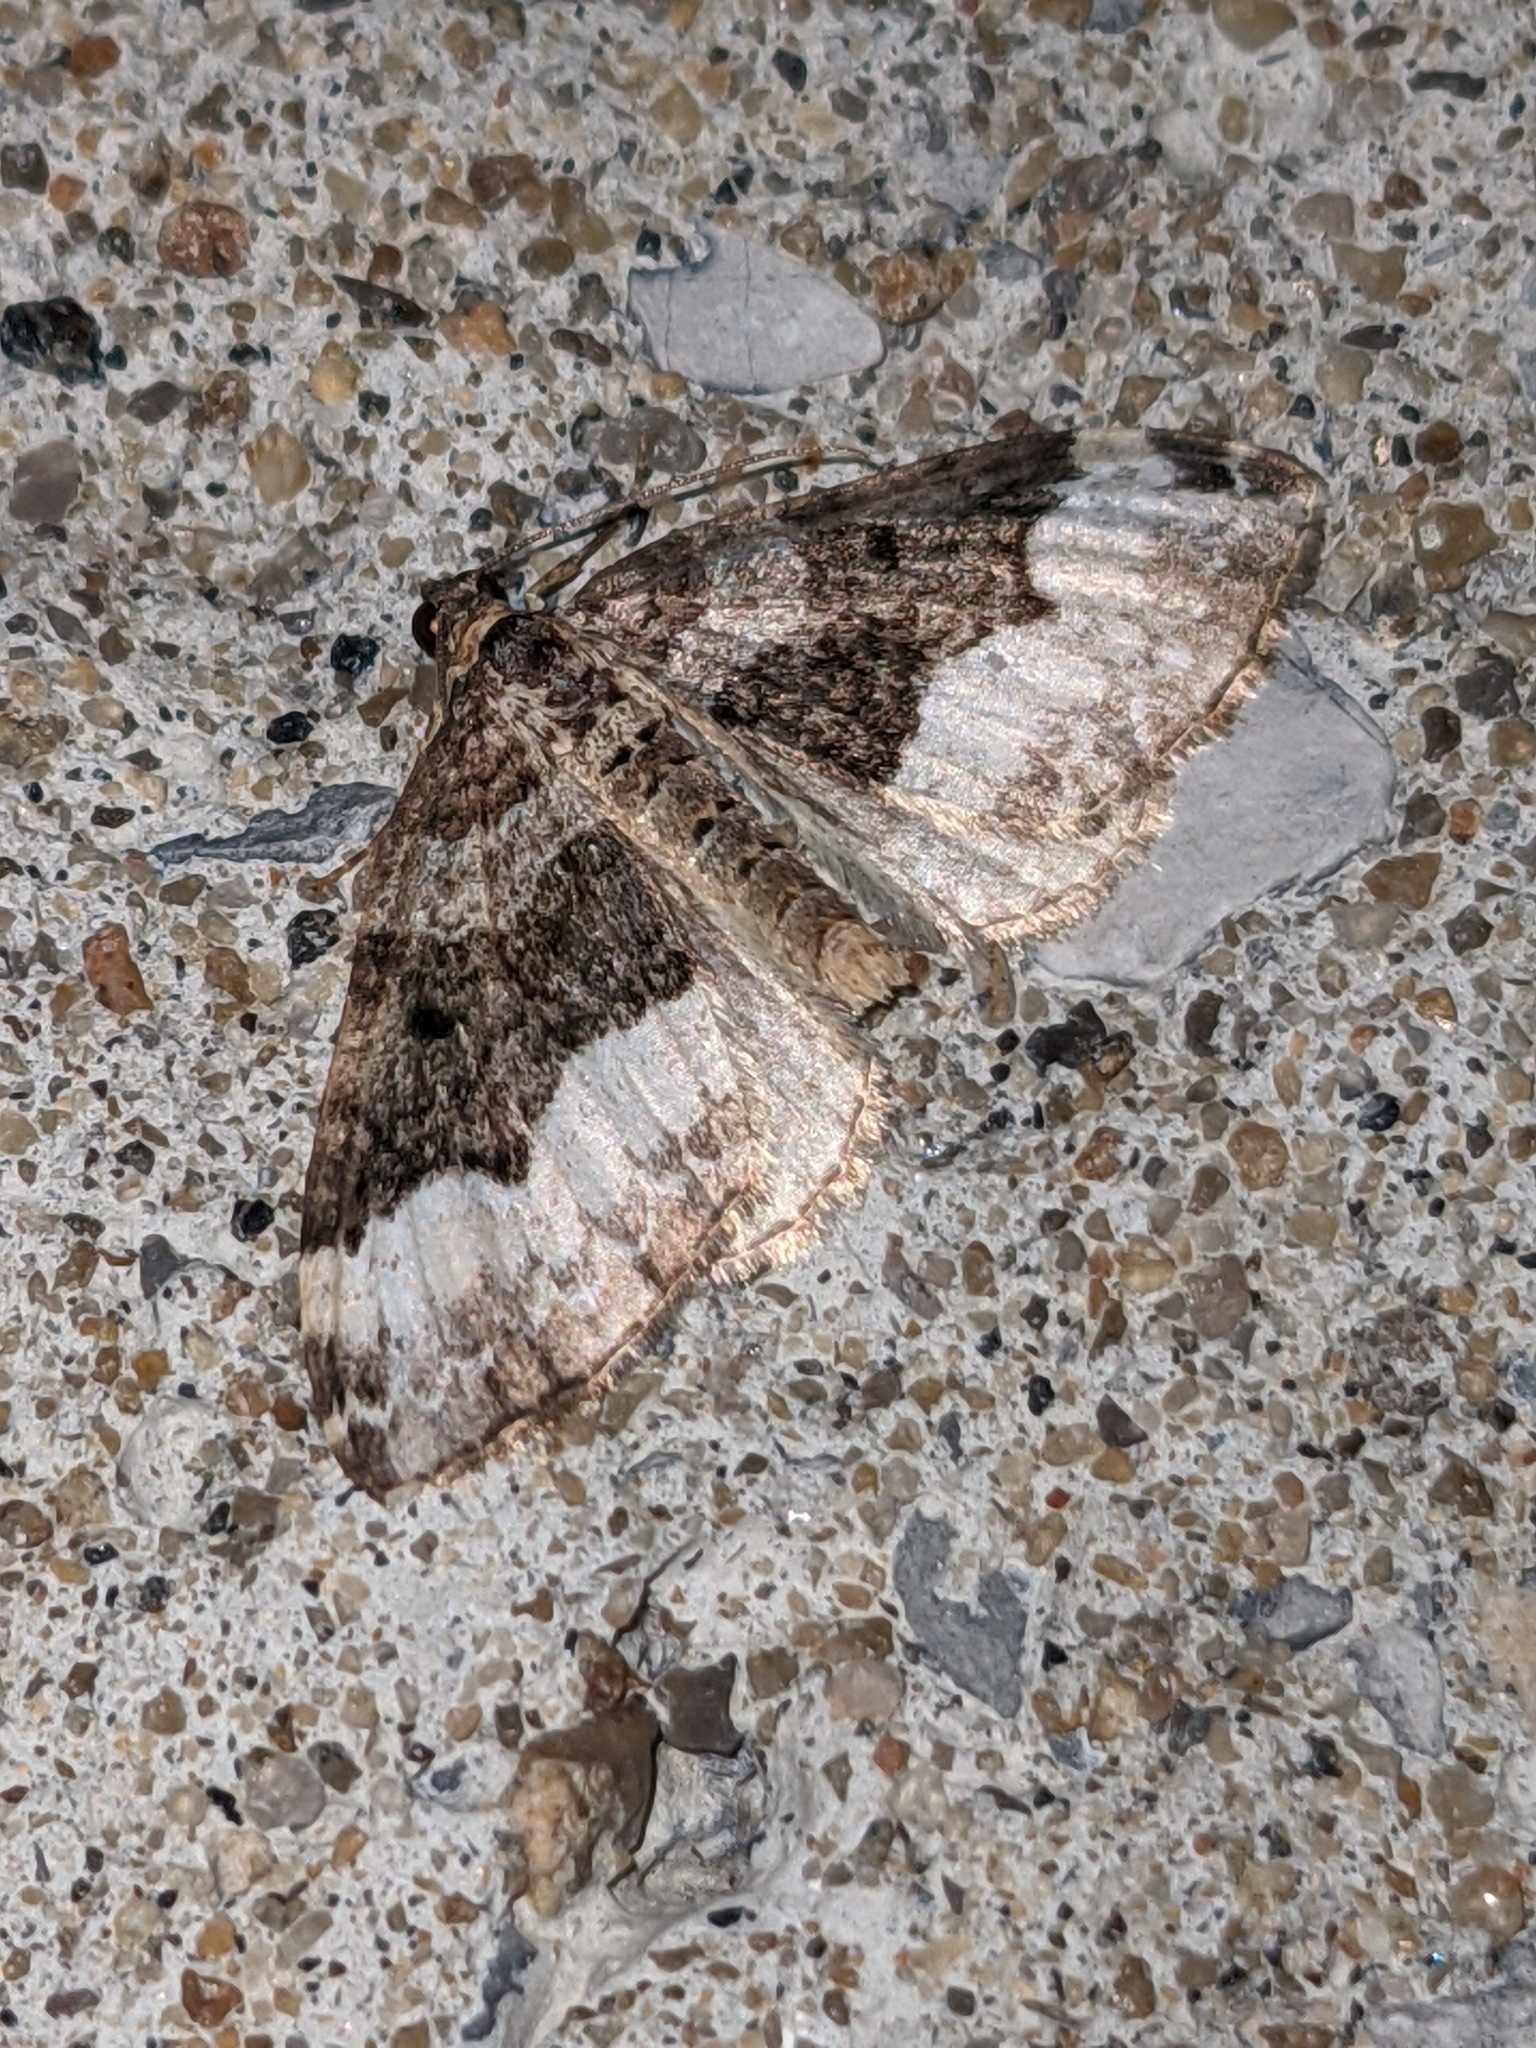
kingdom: Animalia
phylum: Arthropoda
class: Insecta
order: Lepidoptera
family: Geometridae
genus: Euphyia
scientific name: Euphyia intermediata
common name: Sharp-angled carpet
